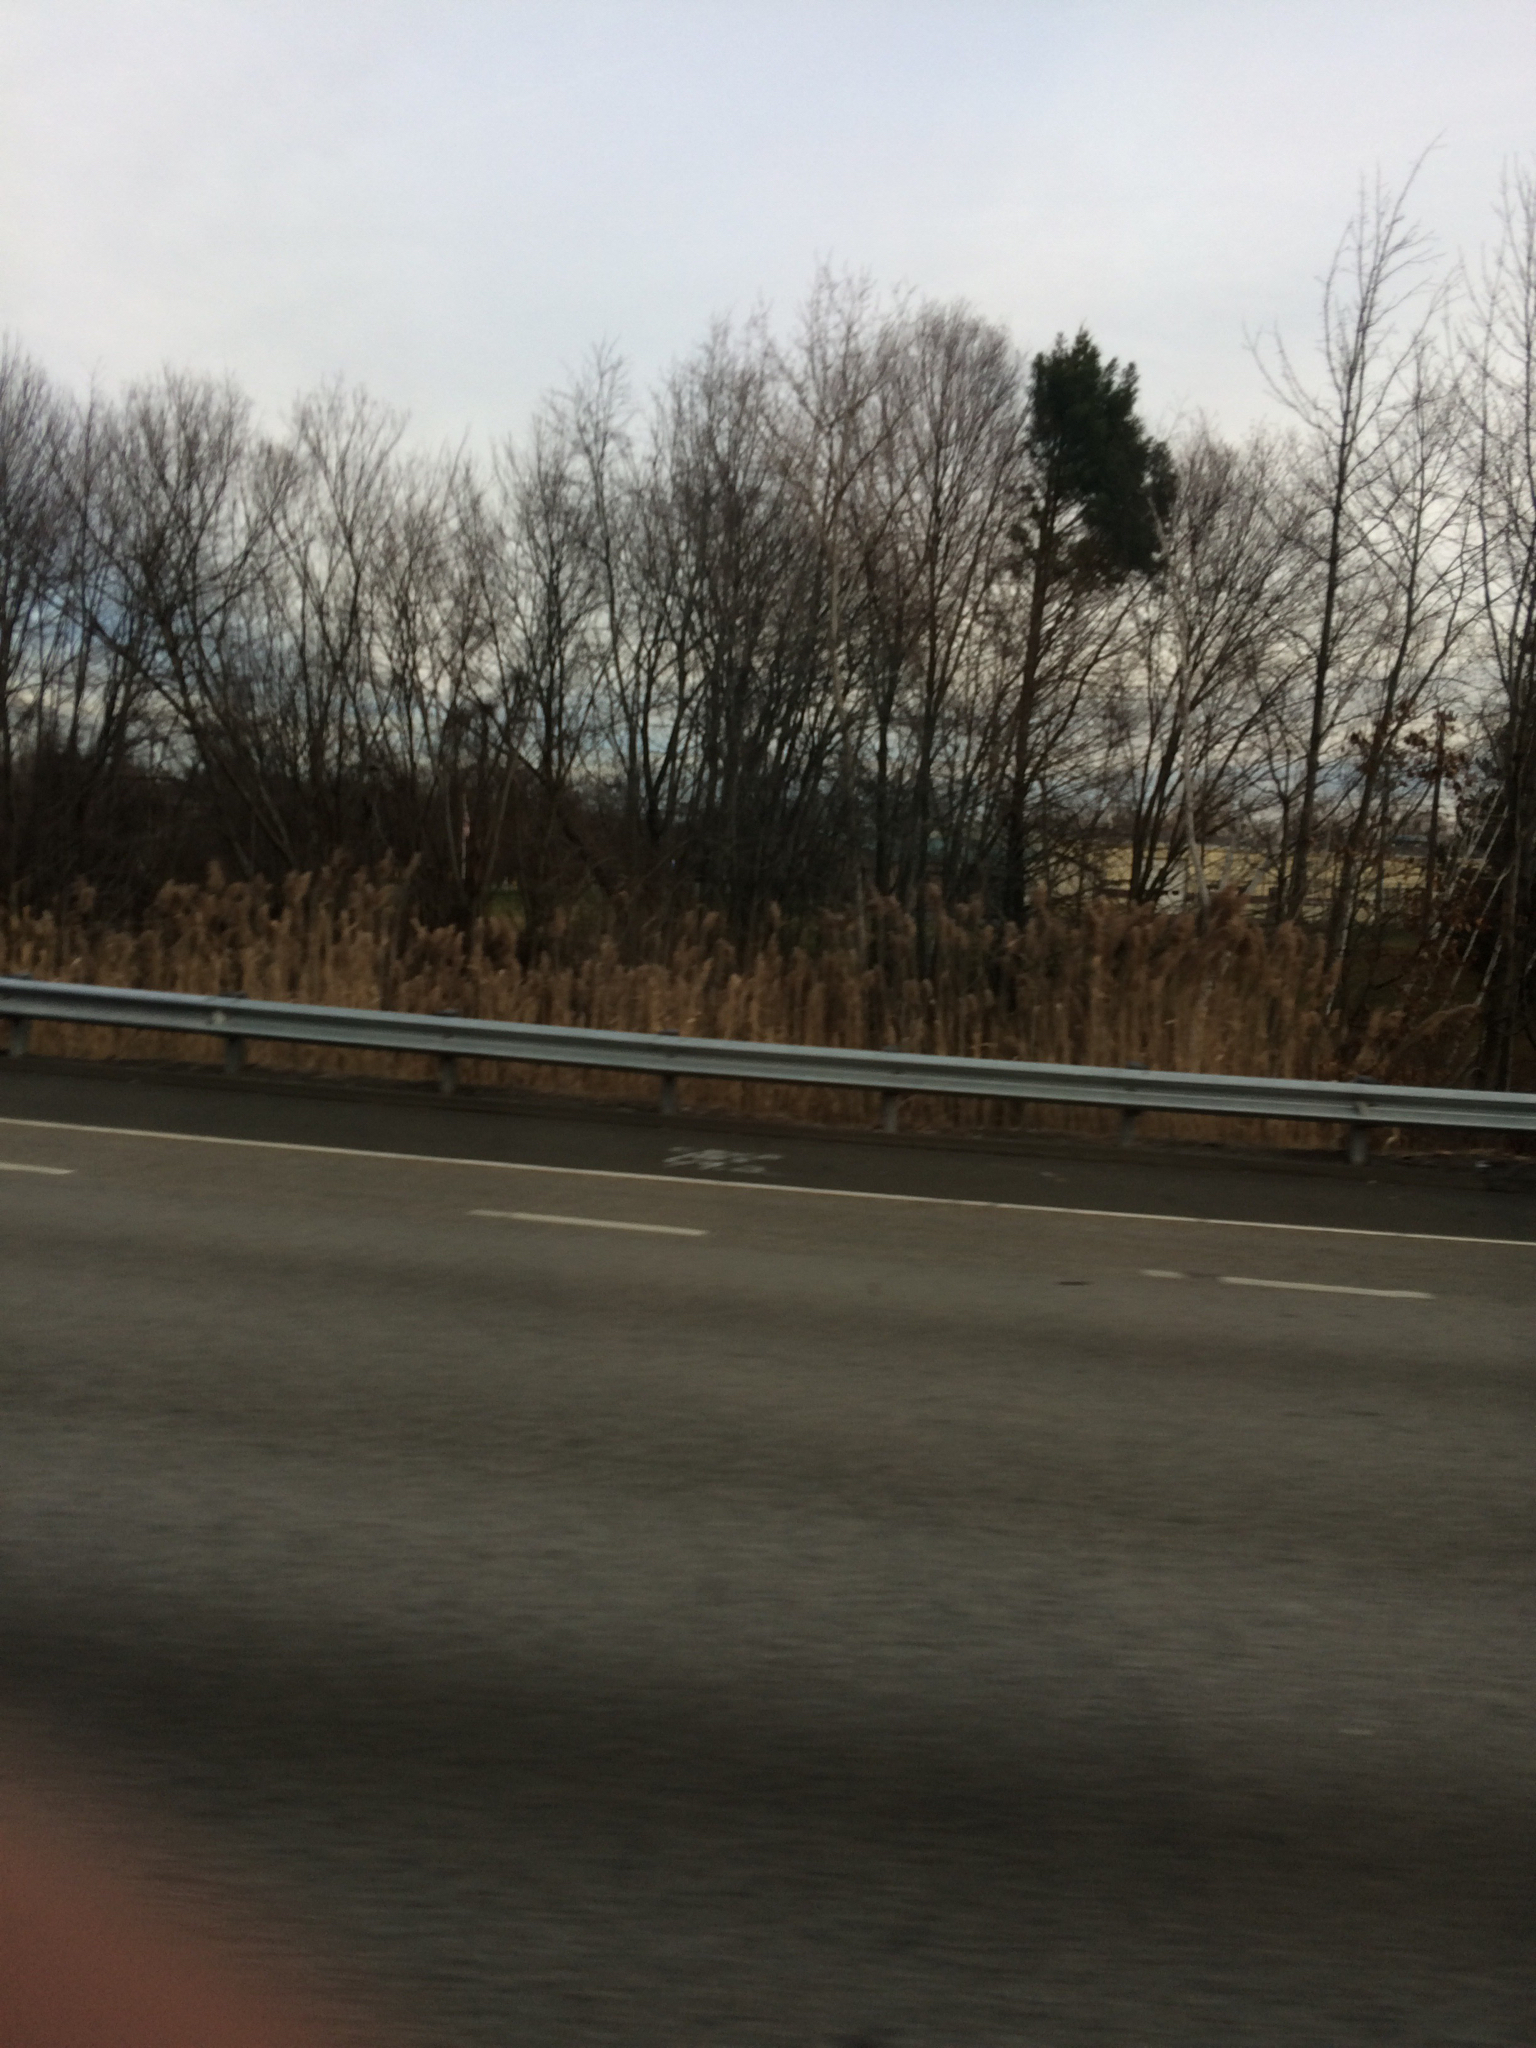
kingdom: Plantae
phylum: Tracheophyta
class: Liliopsida
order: Poales
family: Poaceae
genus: Phragmites
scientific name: Phragmites australis
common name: Common reed
